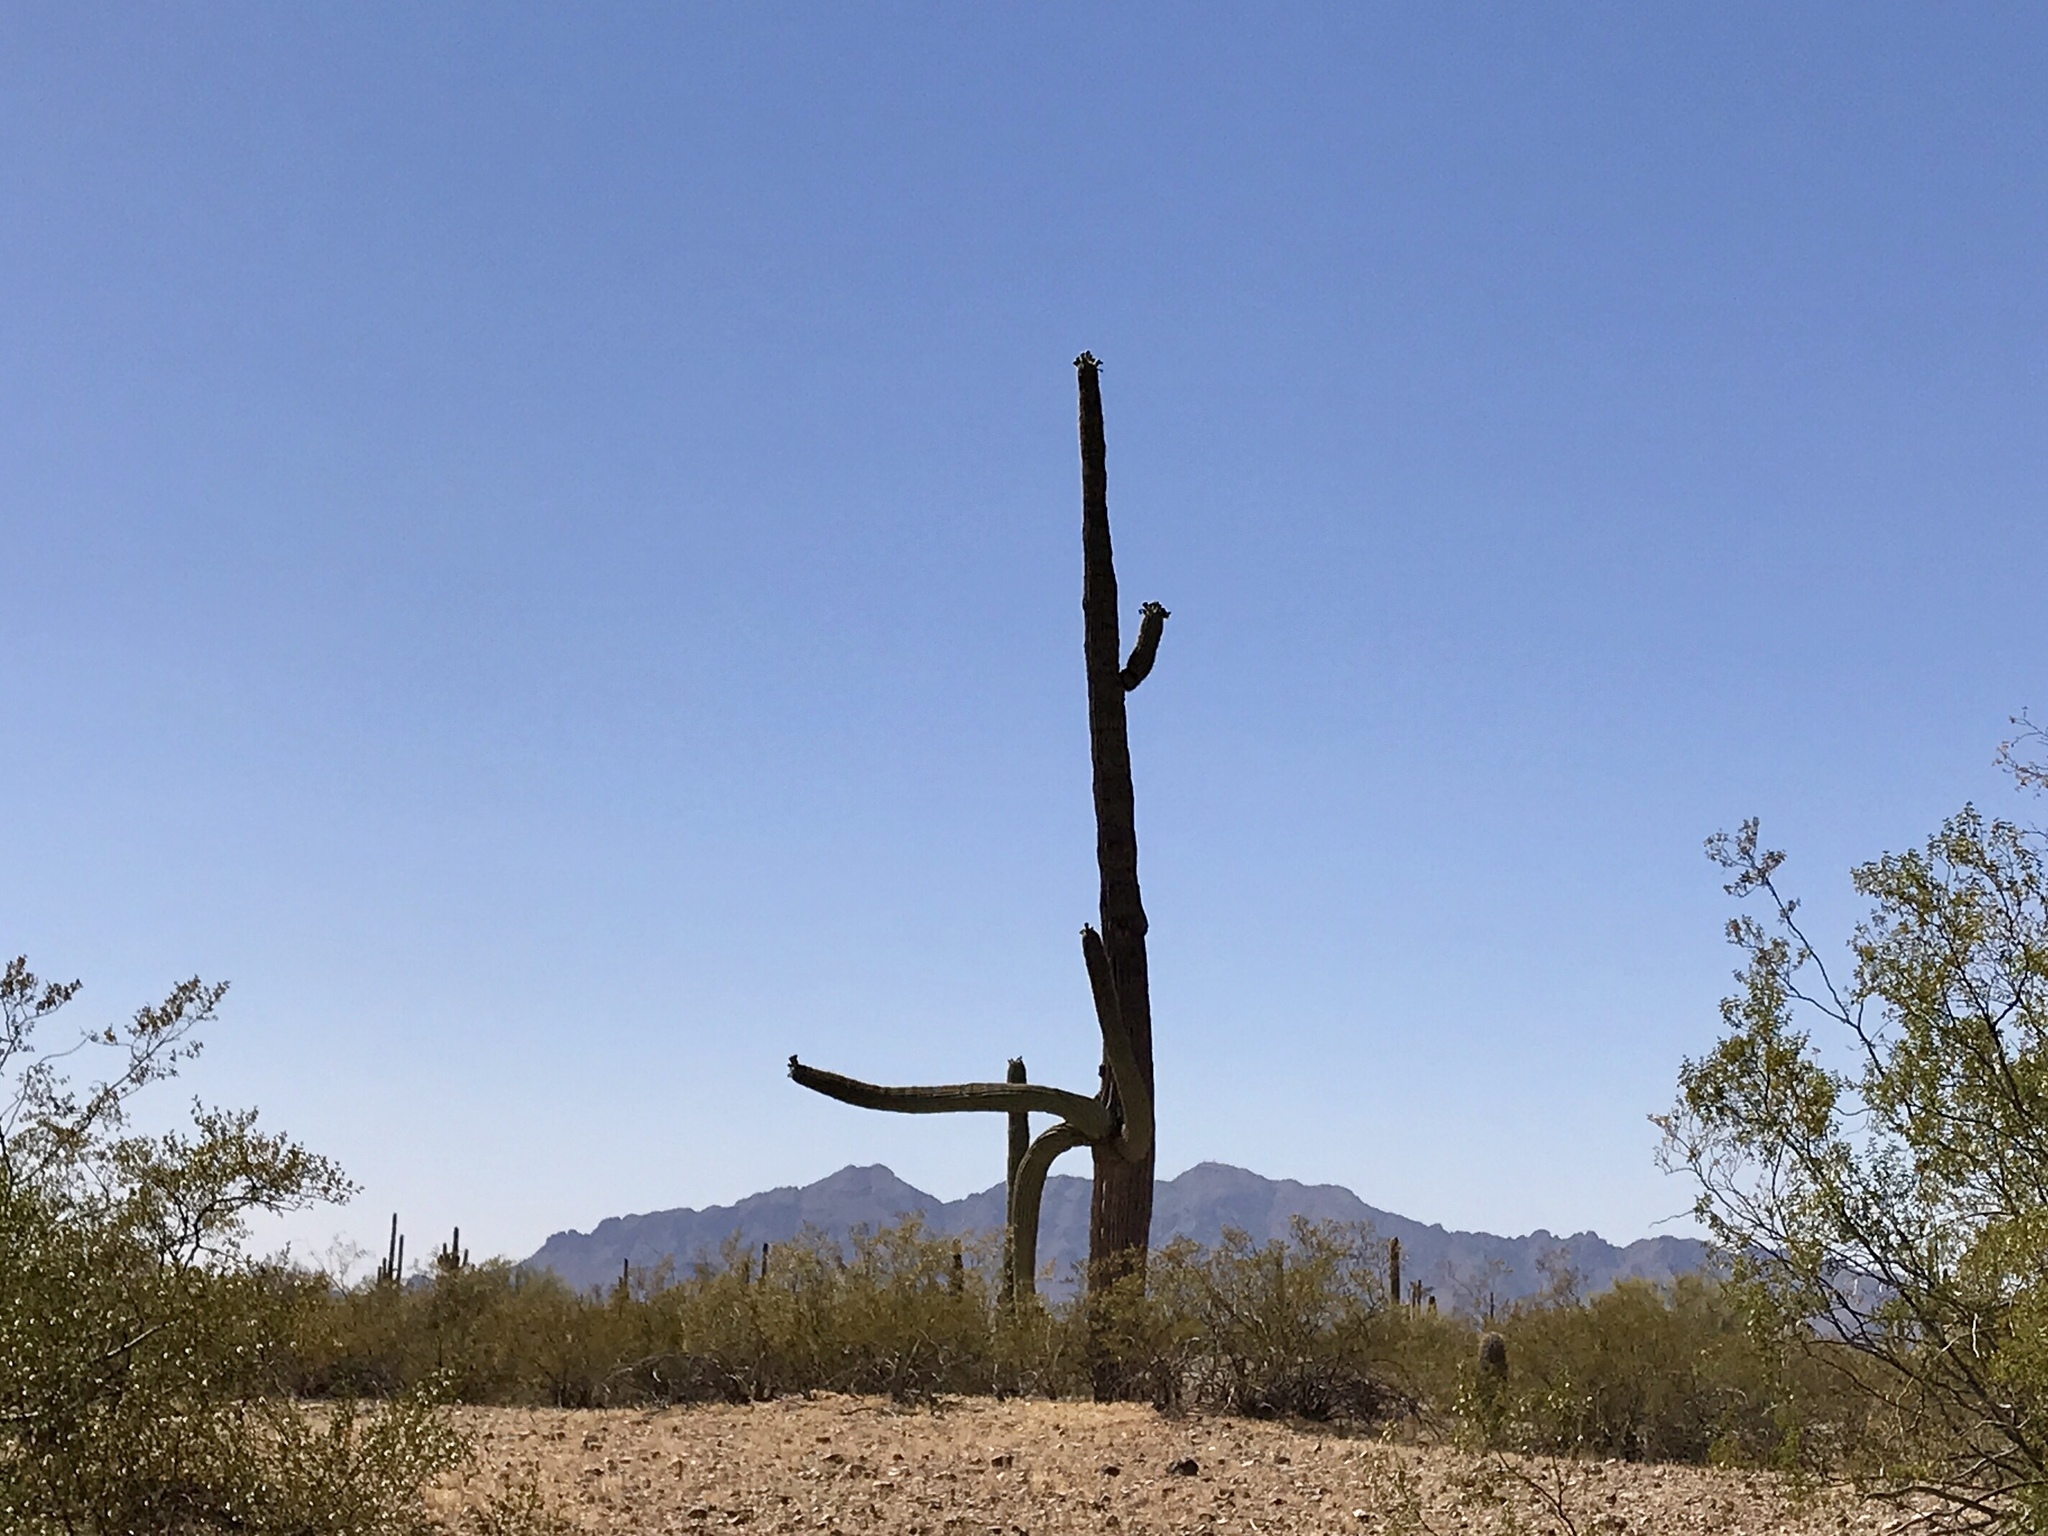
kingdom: Plantae
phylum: Tracheophyta
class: Magnoliopsida
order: Caryophyllales
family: Cactaceae
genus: Carnegiea
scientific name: Carnegiea gigantea
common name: Saguaro
